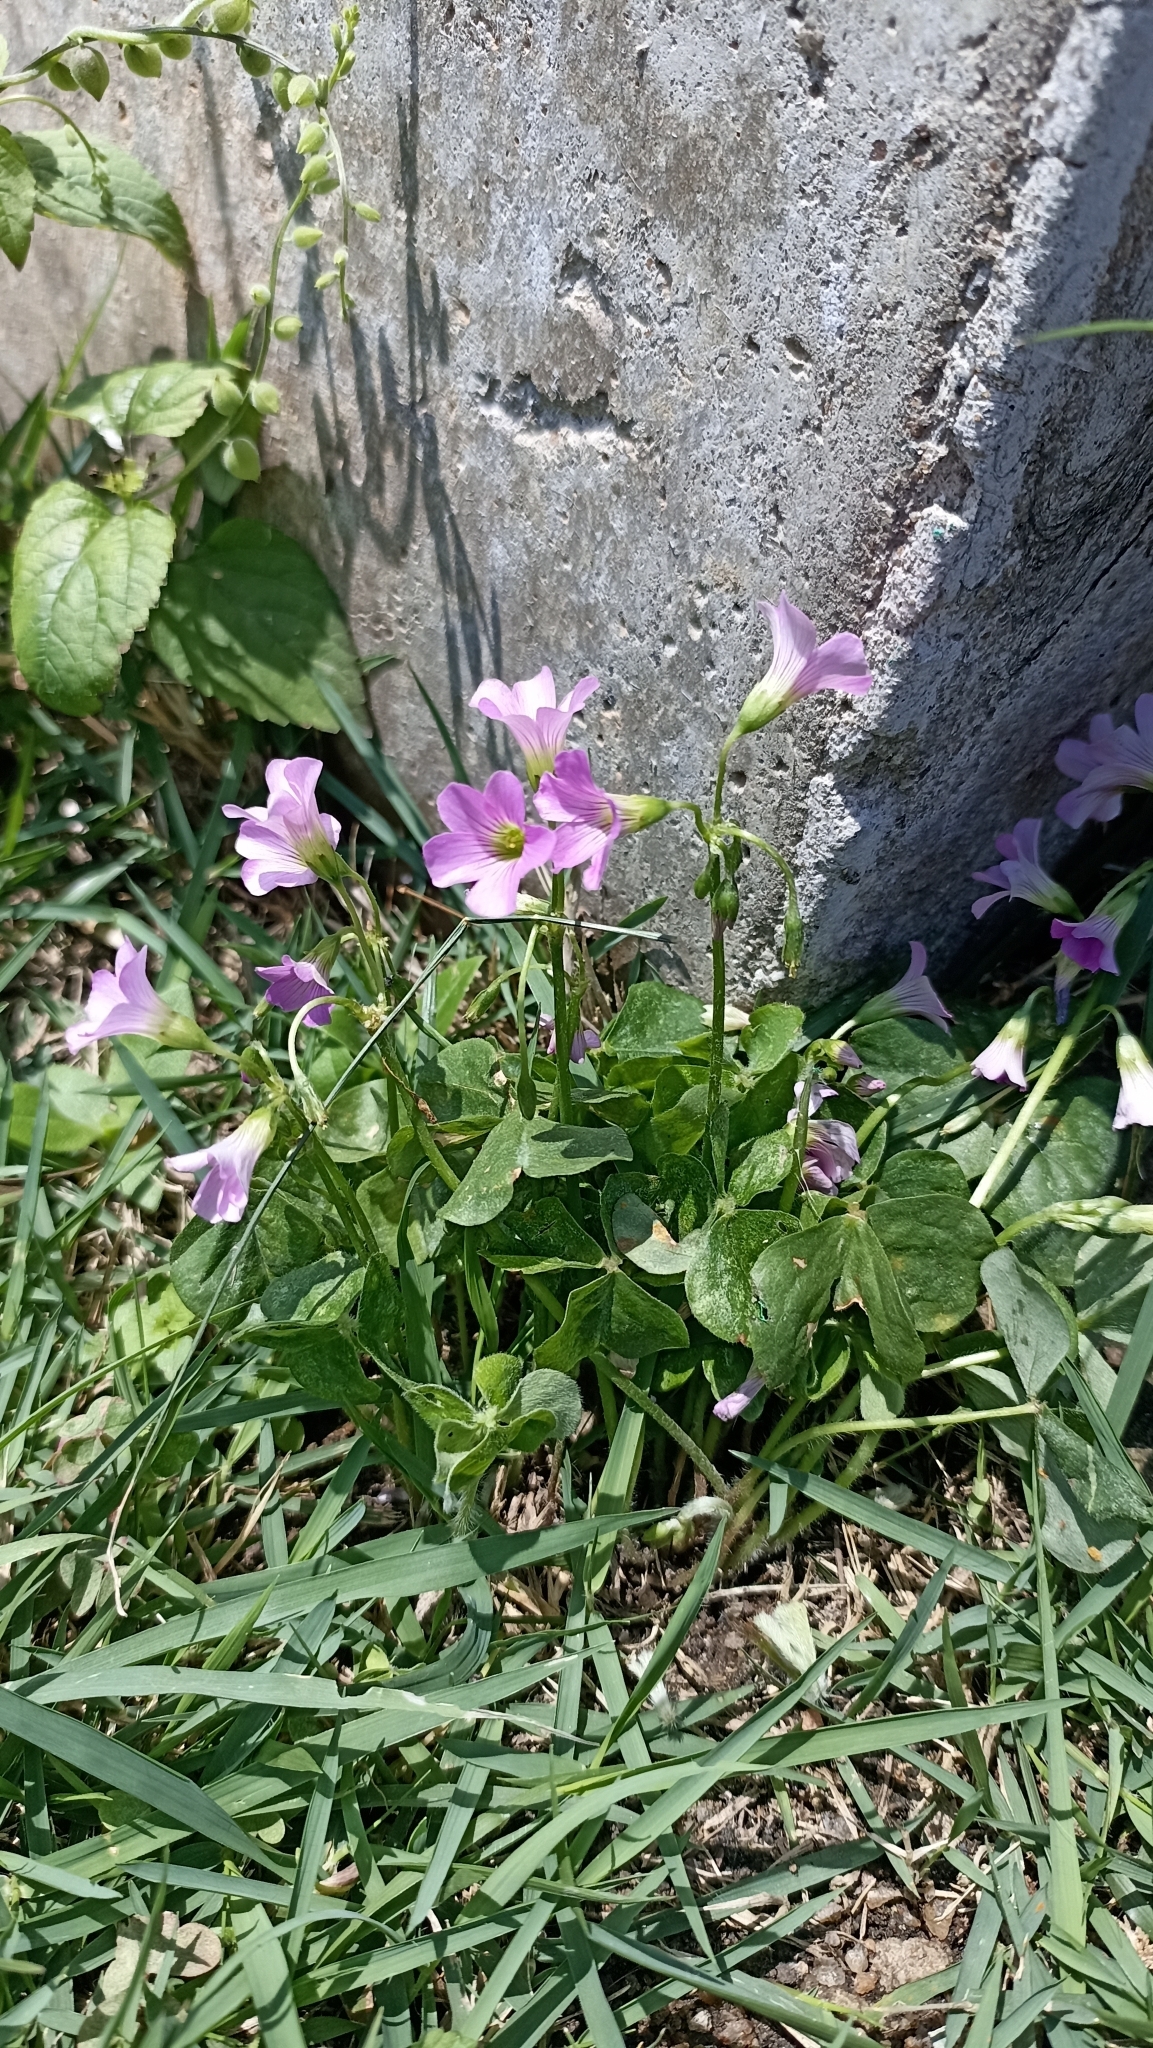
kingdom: Plantae
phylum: Tracheophyta
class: Magnoliopsida
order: Oxalidales
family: Oxalidaceae
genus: Oxalis
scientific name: Oxalis debilis
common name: Large-flowered pink-sorrel
